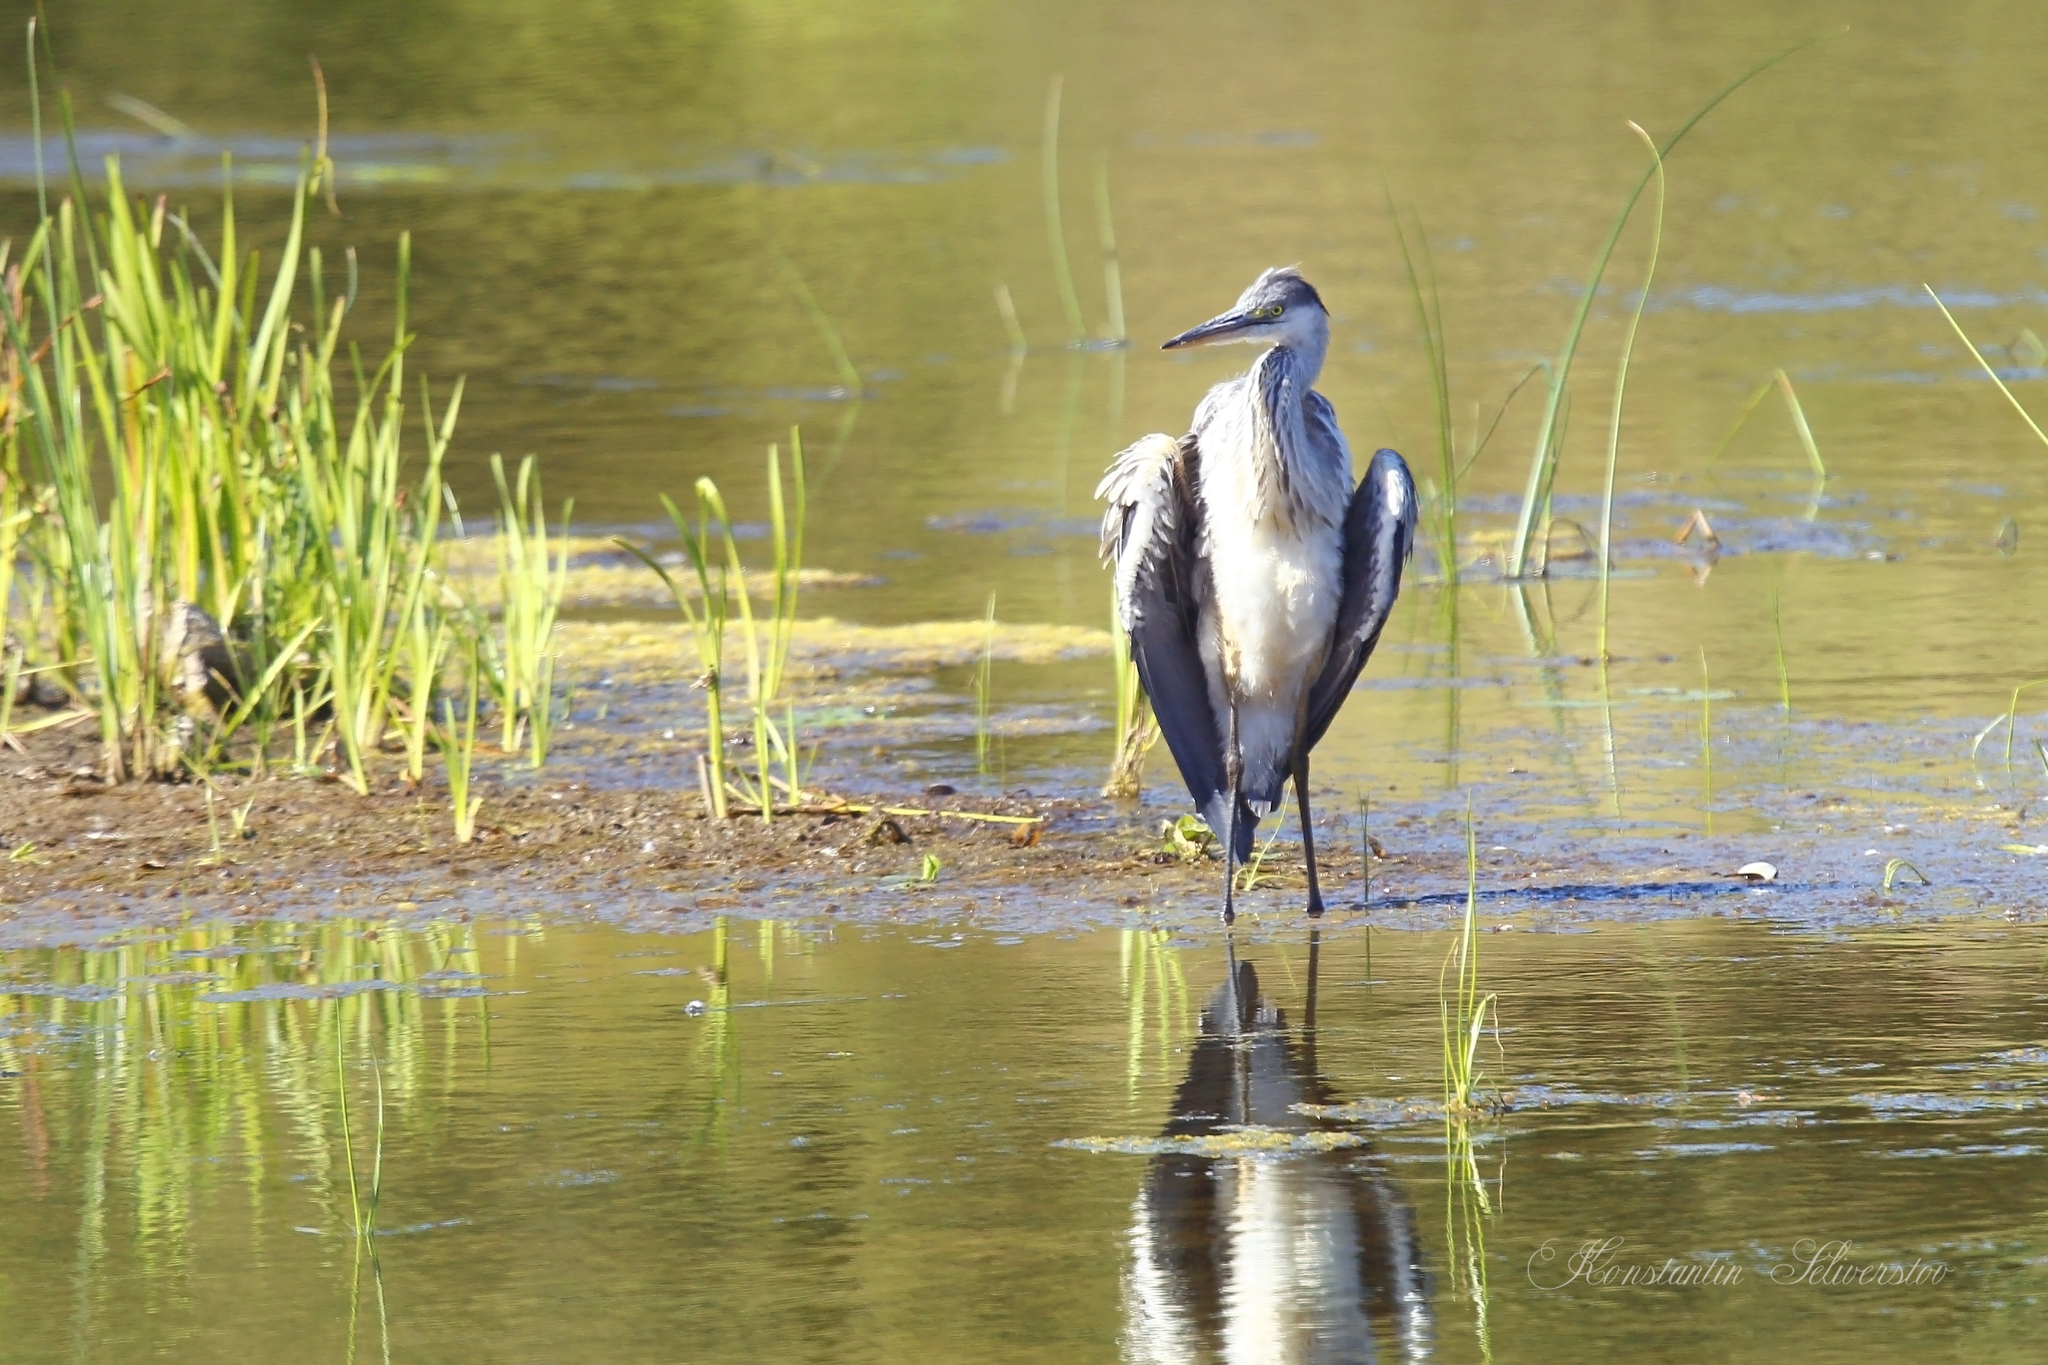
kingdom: Animalia
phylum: Chordata
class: Aves
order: Pelecaniformes
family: Ardeidae
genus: Ardea
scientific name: Ardea cinerea
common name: Grey heron
